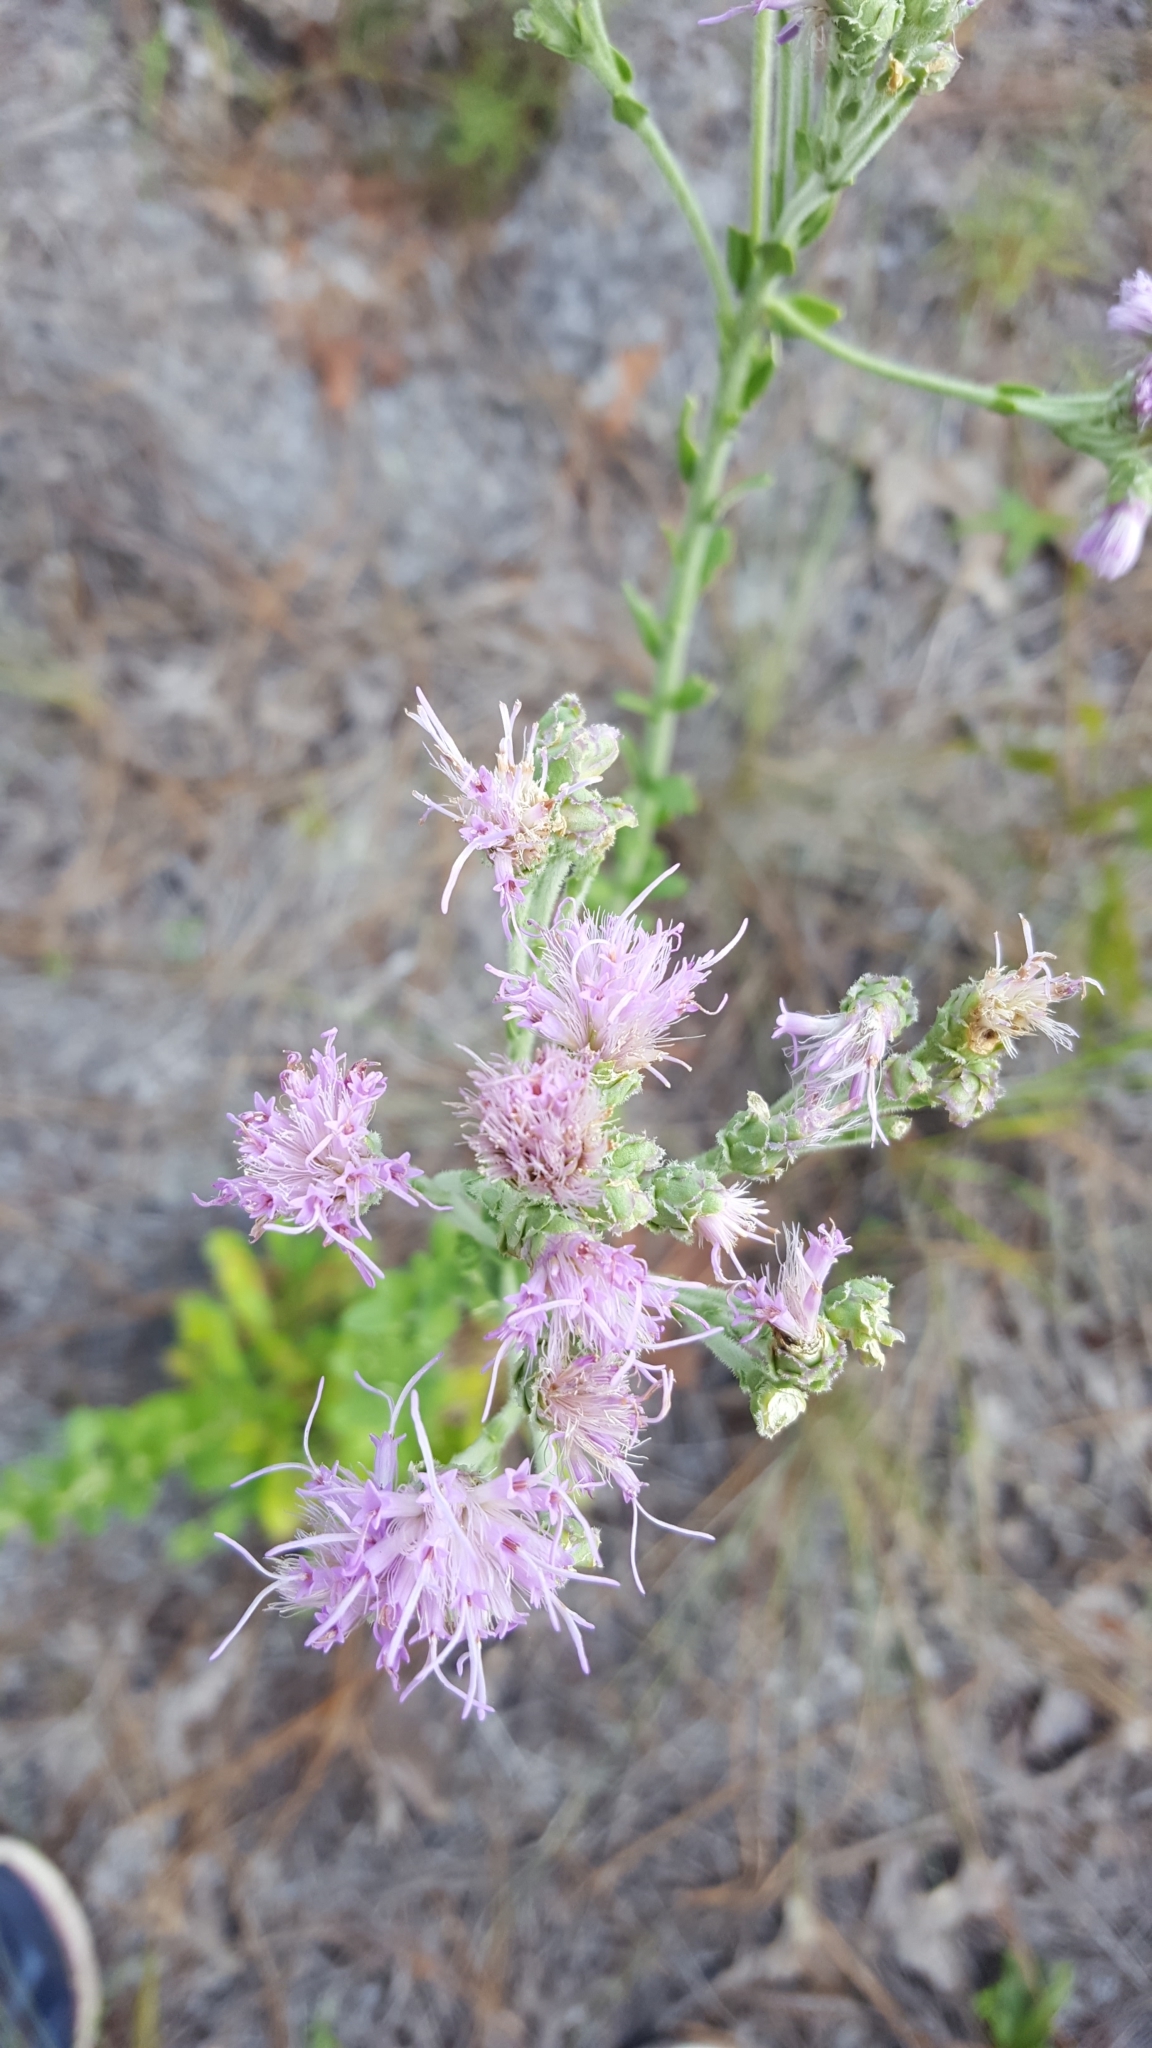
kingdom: Plantae
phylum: Tracheophyta
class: Magnoliopsida
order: Asterales
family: Asteraceae
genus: Carphephorus
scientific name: Carphephorus corymbosus
